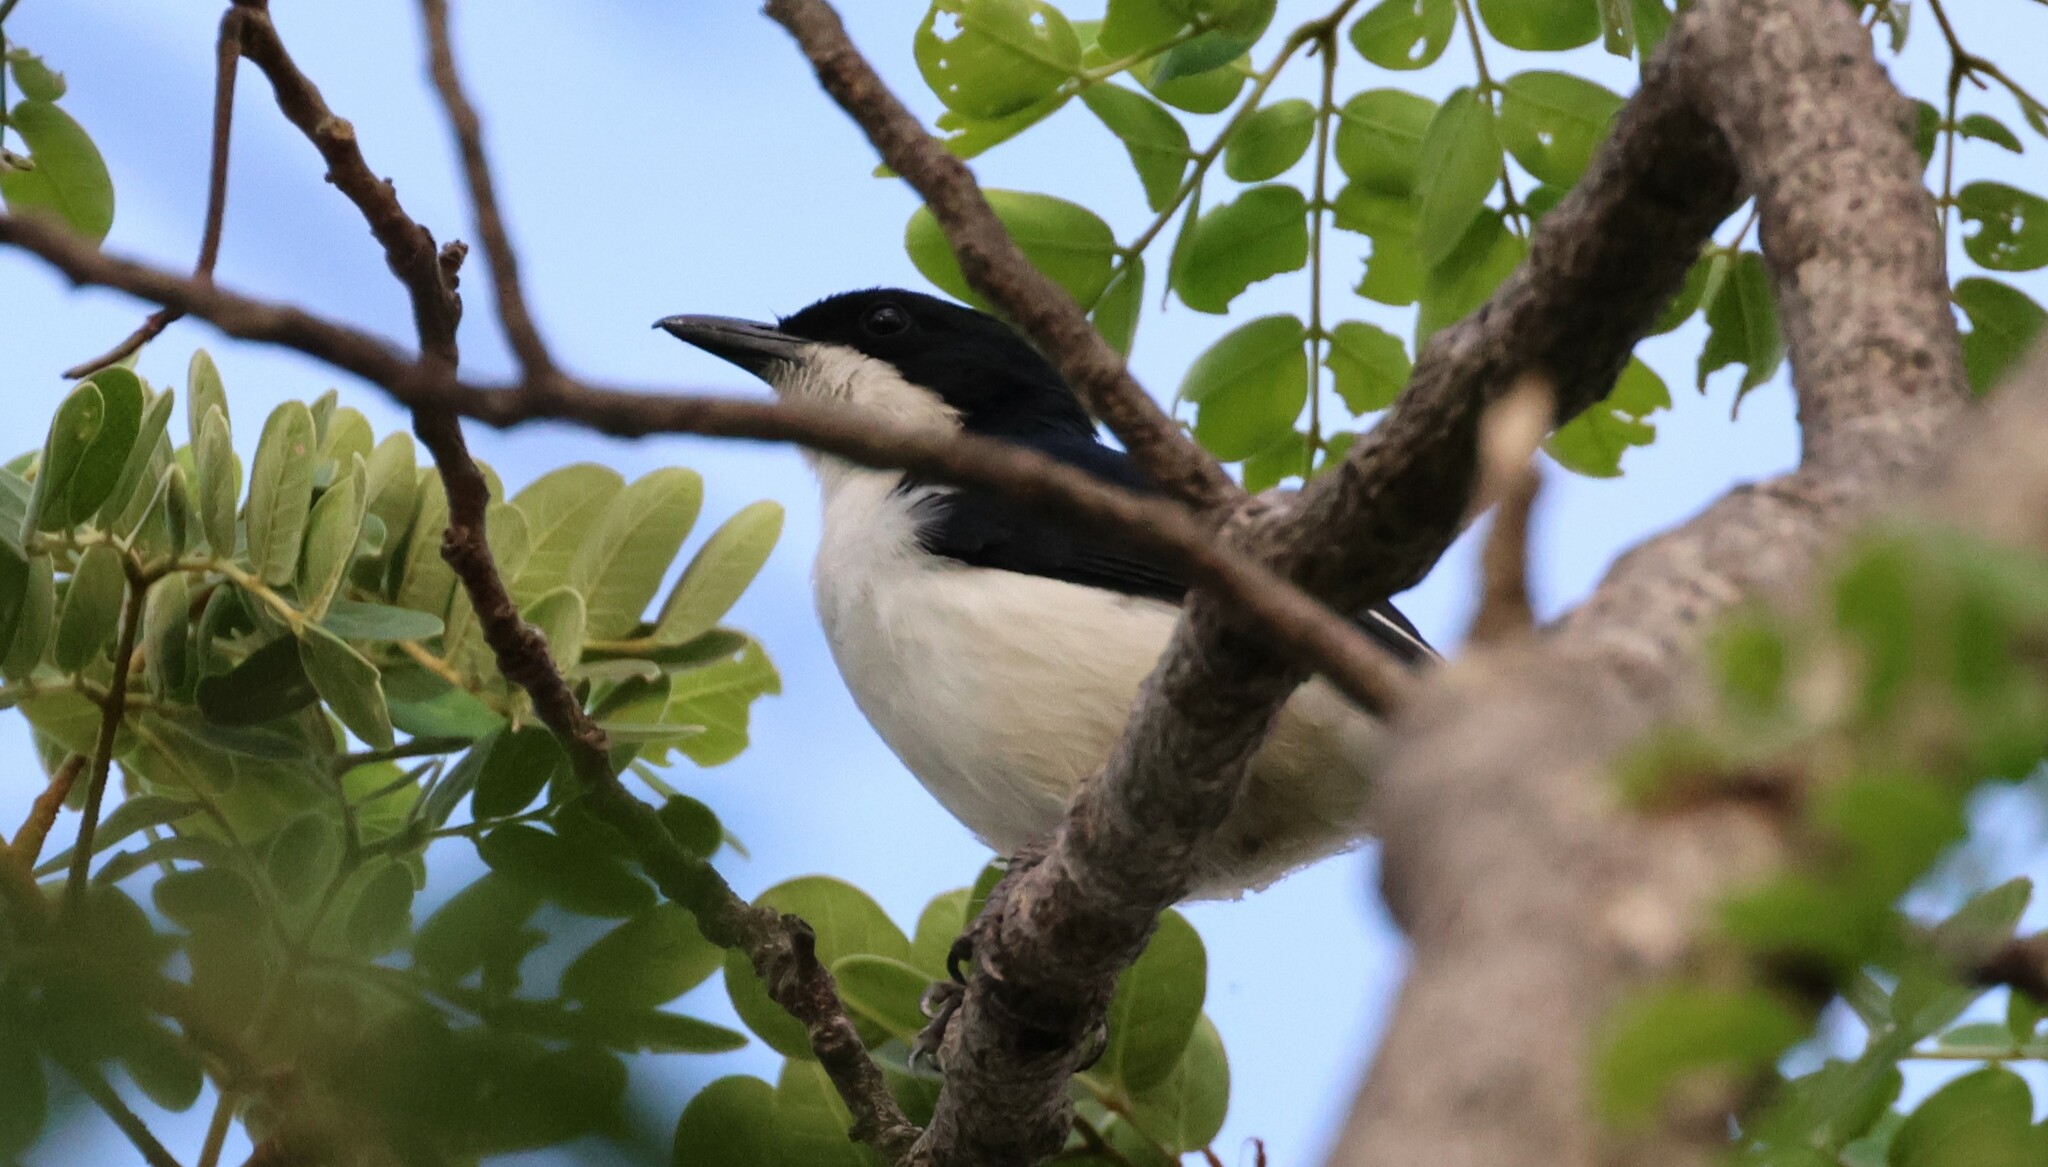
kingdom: Animalia
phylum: Chordata
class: Aves
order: Passeriformes
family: Malaconotidae
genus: Laniarius
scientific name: Laniarius bicolor
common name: Swamp boubou
